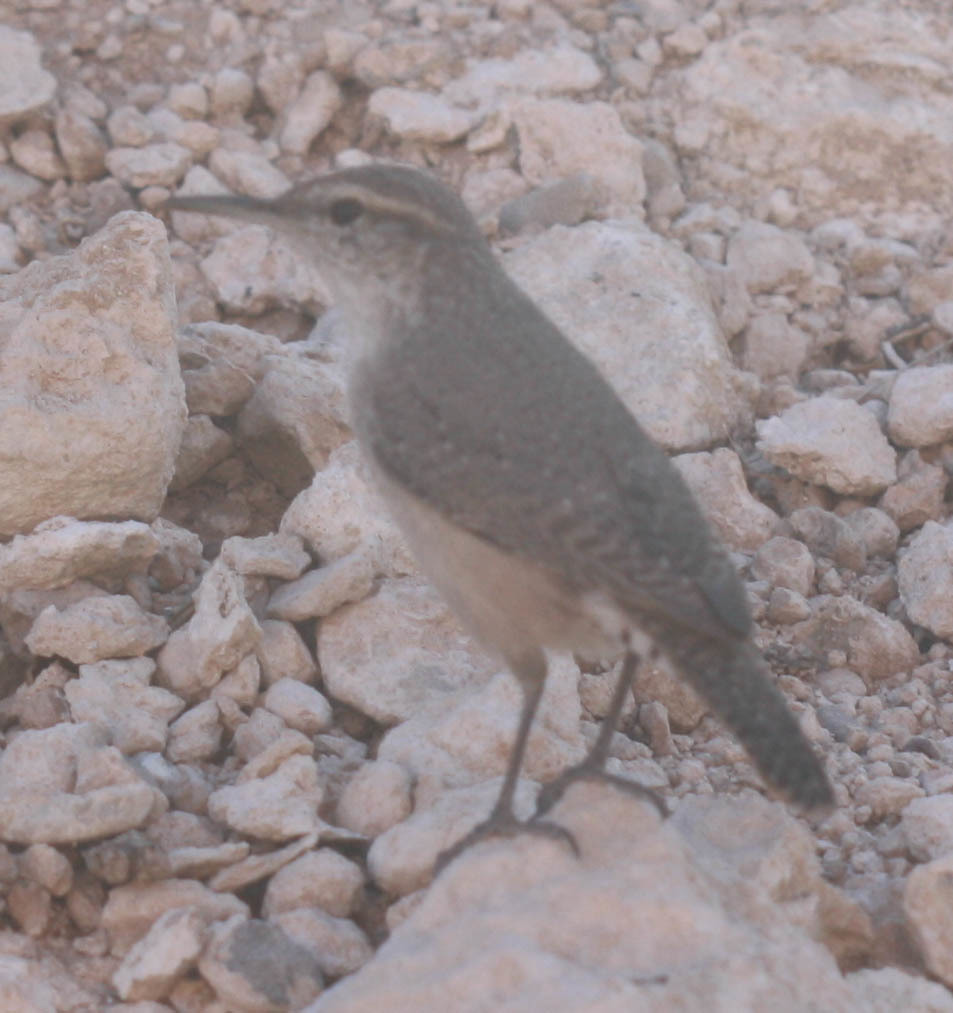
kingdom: Animalia
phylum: Chordata
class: Aves
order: Passeriformes
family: Troglodytidae
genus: Salpinctes
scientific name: Salpinctes obsoletus
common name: Rock wren
